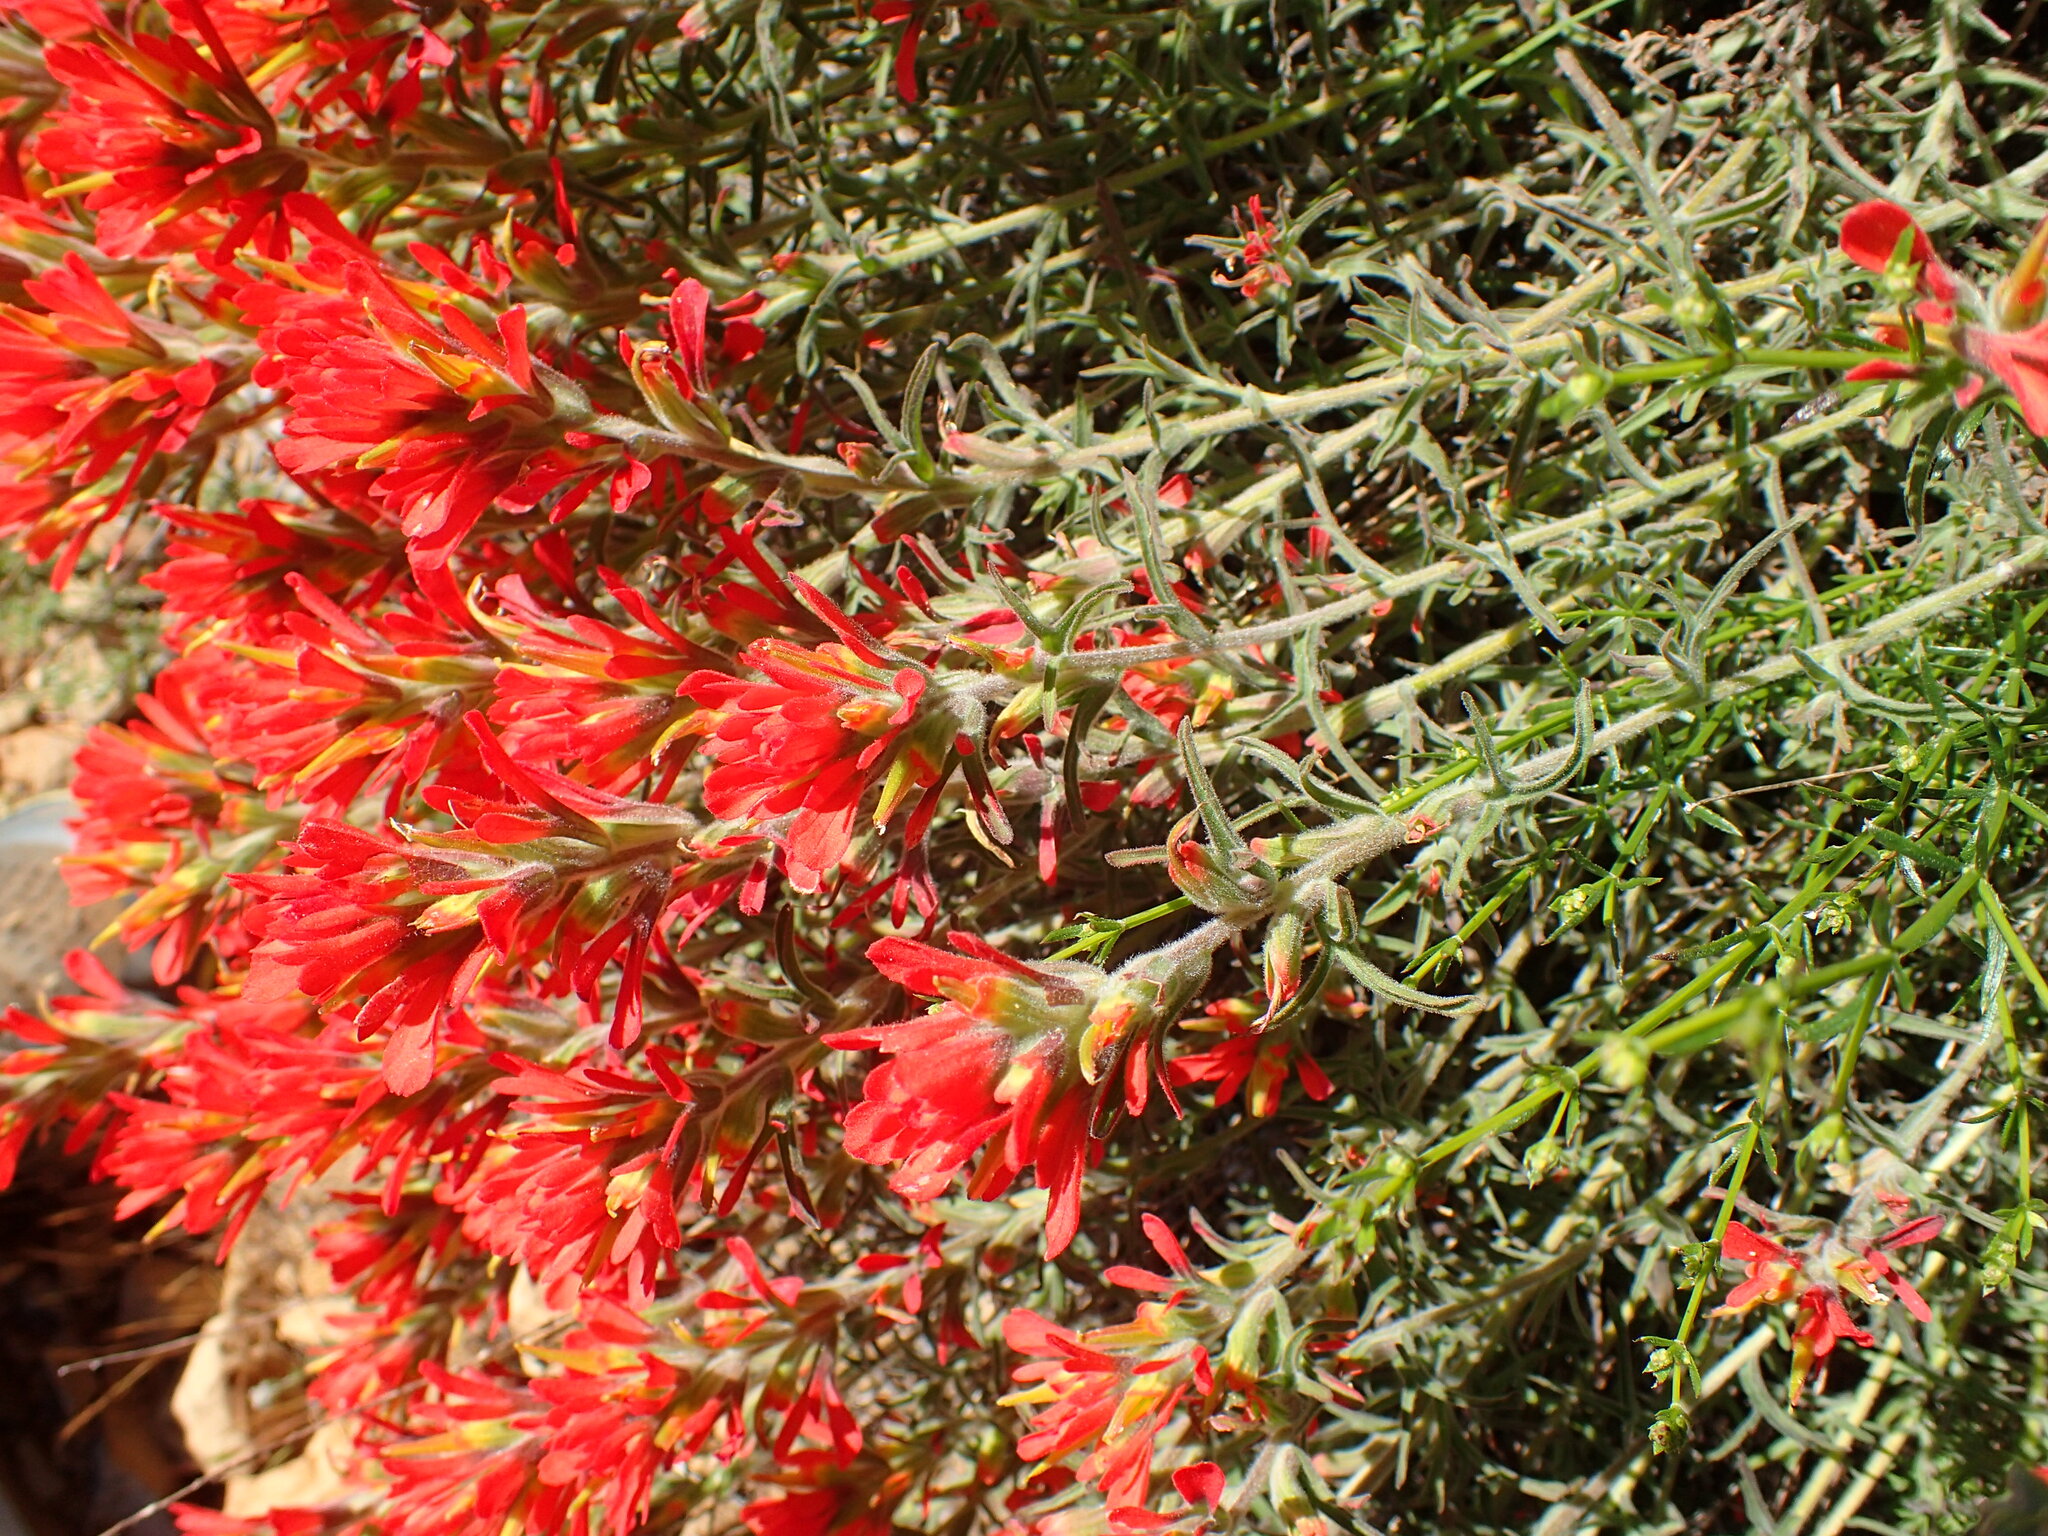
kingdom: Plantae
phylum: Tracheophyta
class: Magnoliopsida
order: Lamiales
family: Orobanchaceae
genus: Castilleja
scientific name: Castilleja foliolosa
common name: Woolly indian paintbrush
